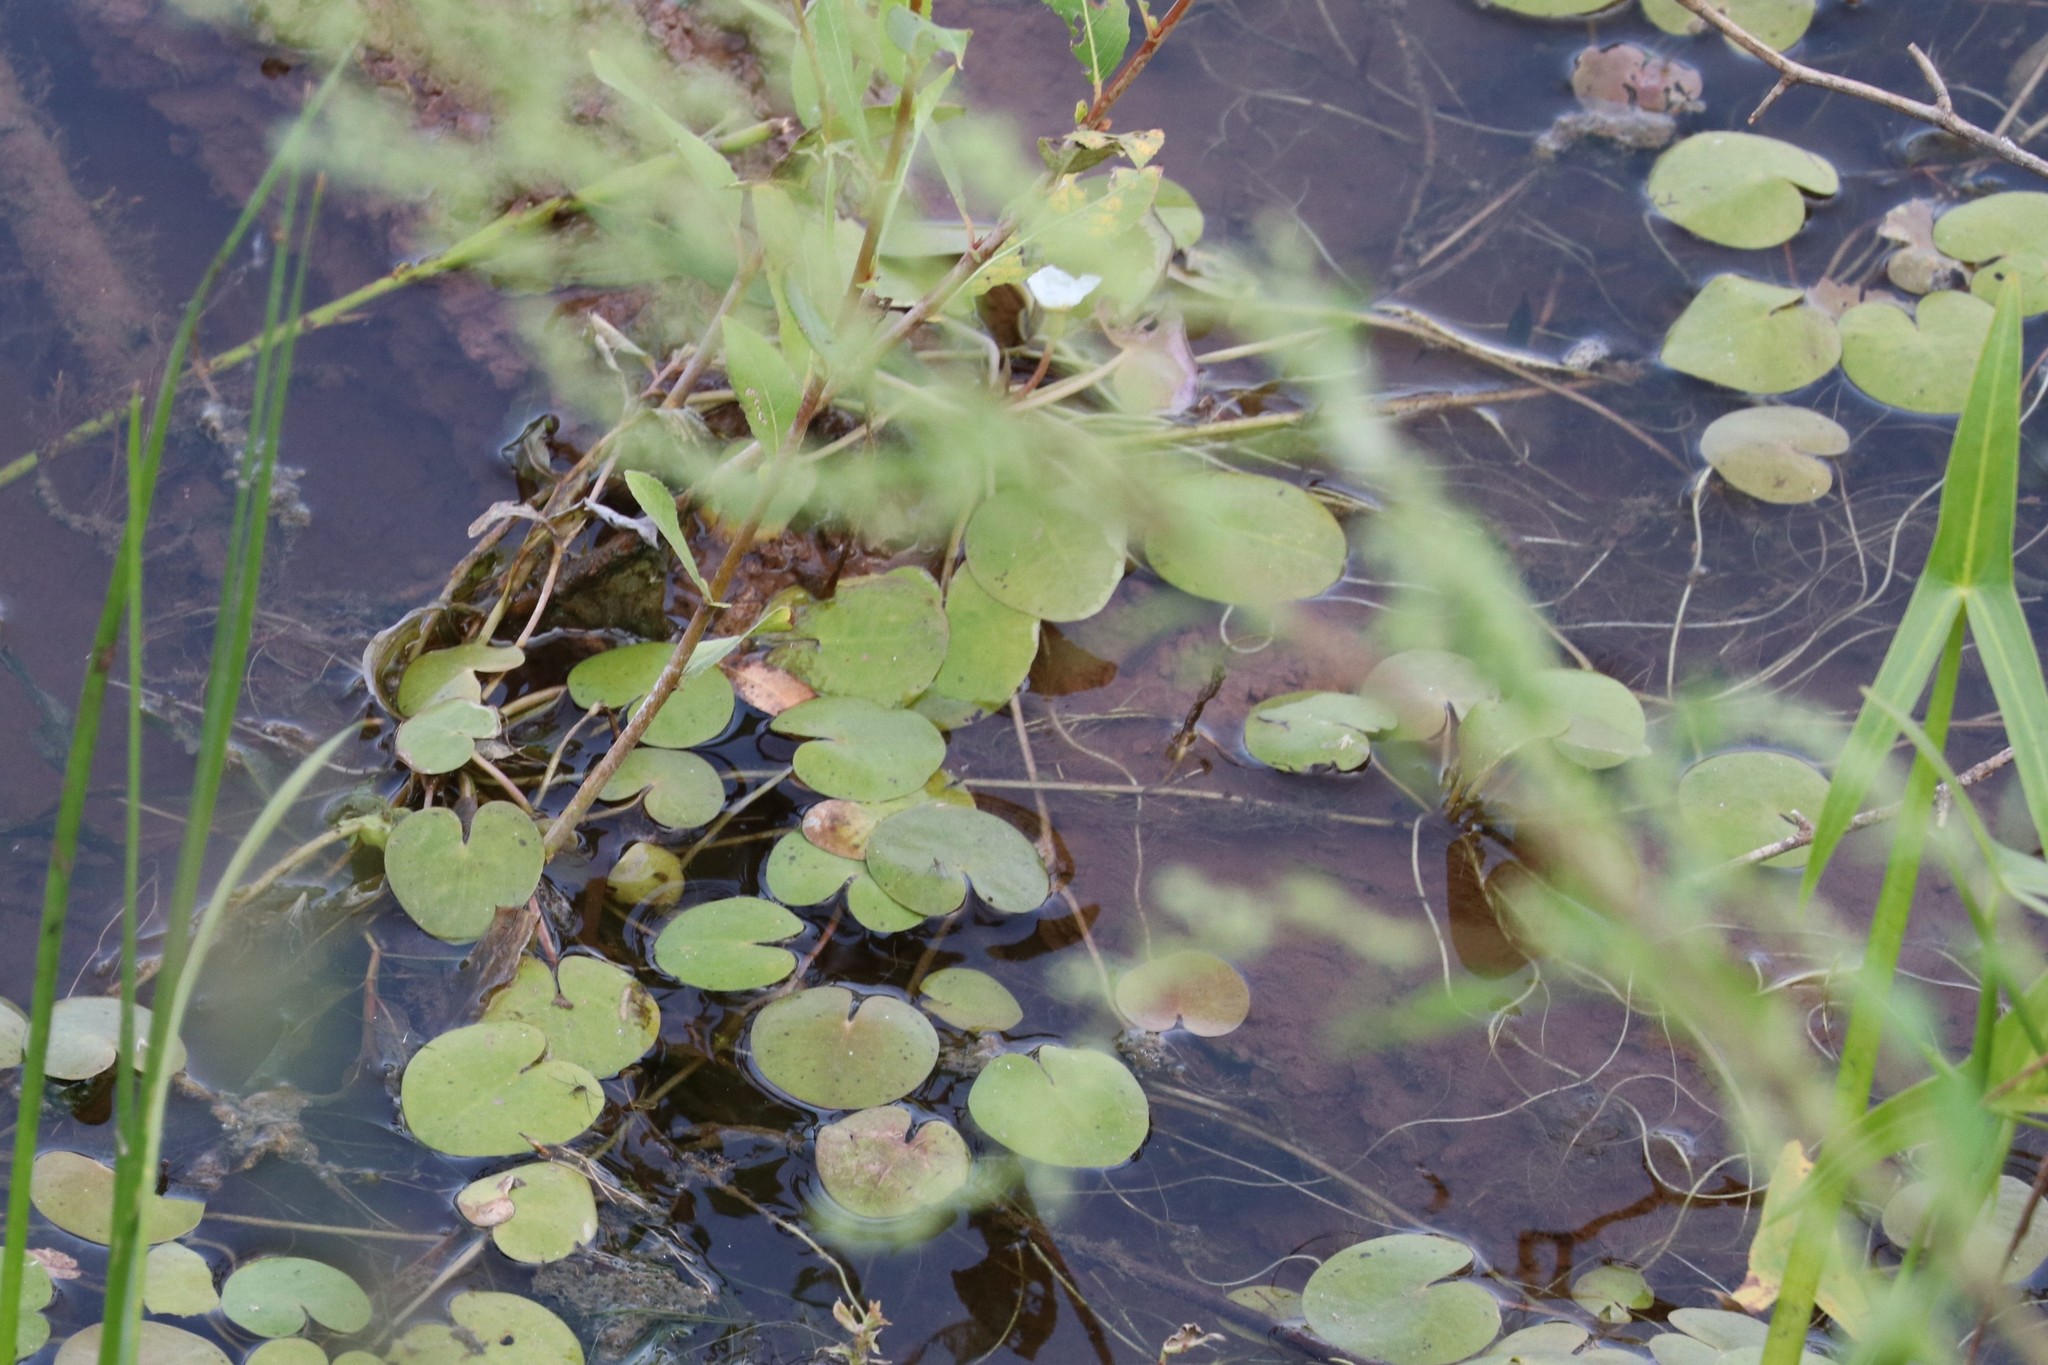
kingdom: Plantae
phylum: Tracheophyta
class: Liliopsida
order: Alismatales
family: Hydrocharitaceae
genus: Hydrocharis
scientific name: Hydrocharis morsus-ranae
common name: Frogbit
